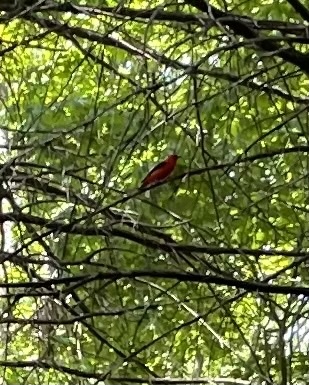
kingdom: Animalia
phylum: Chordata
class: Aves
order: Passeriformes
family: Cardinalidae
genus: Piranga
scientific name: Piranga olivacea
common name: Scarlet tanager
